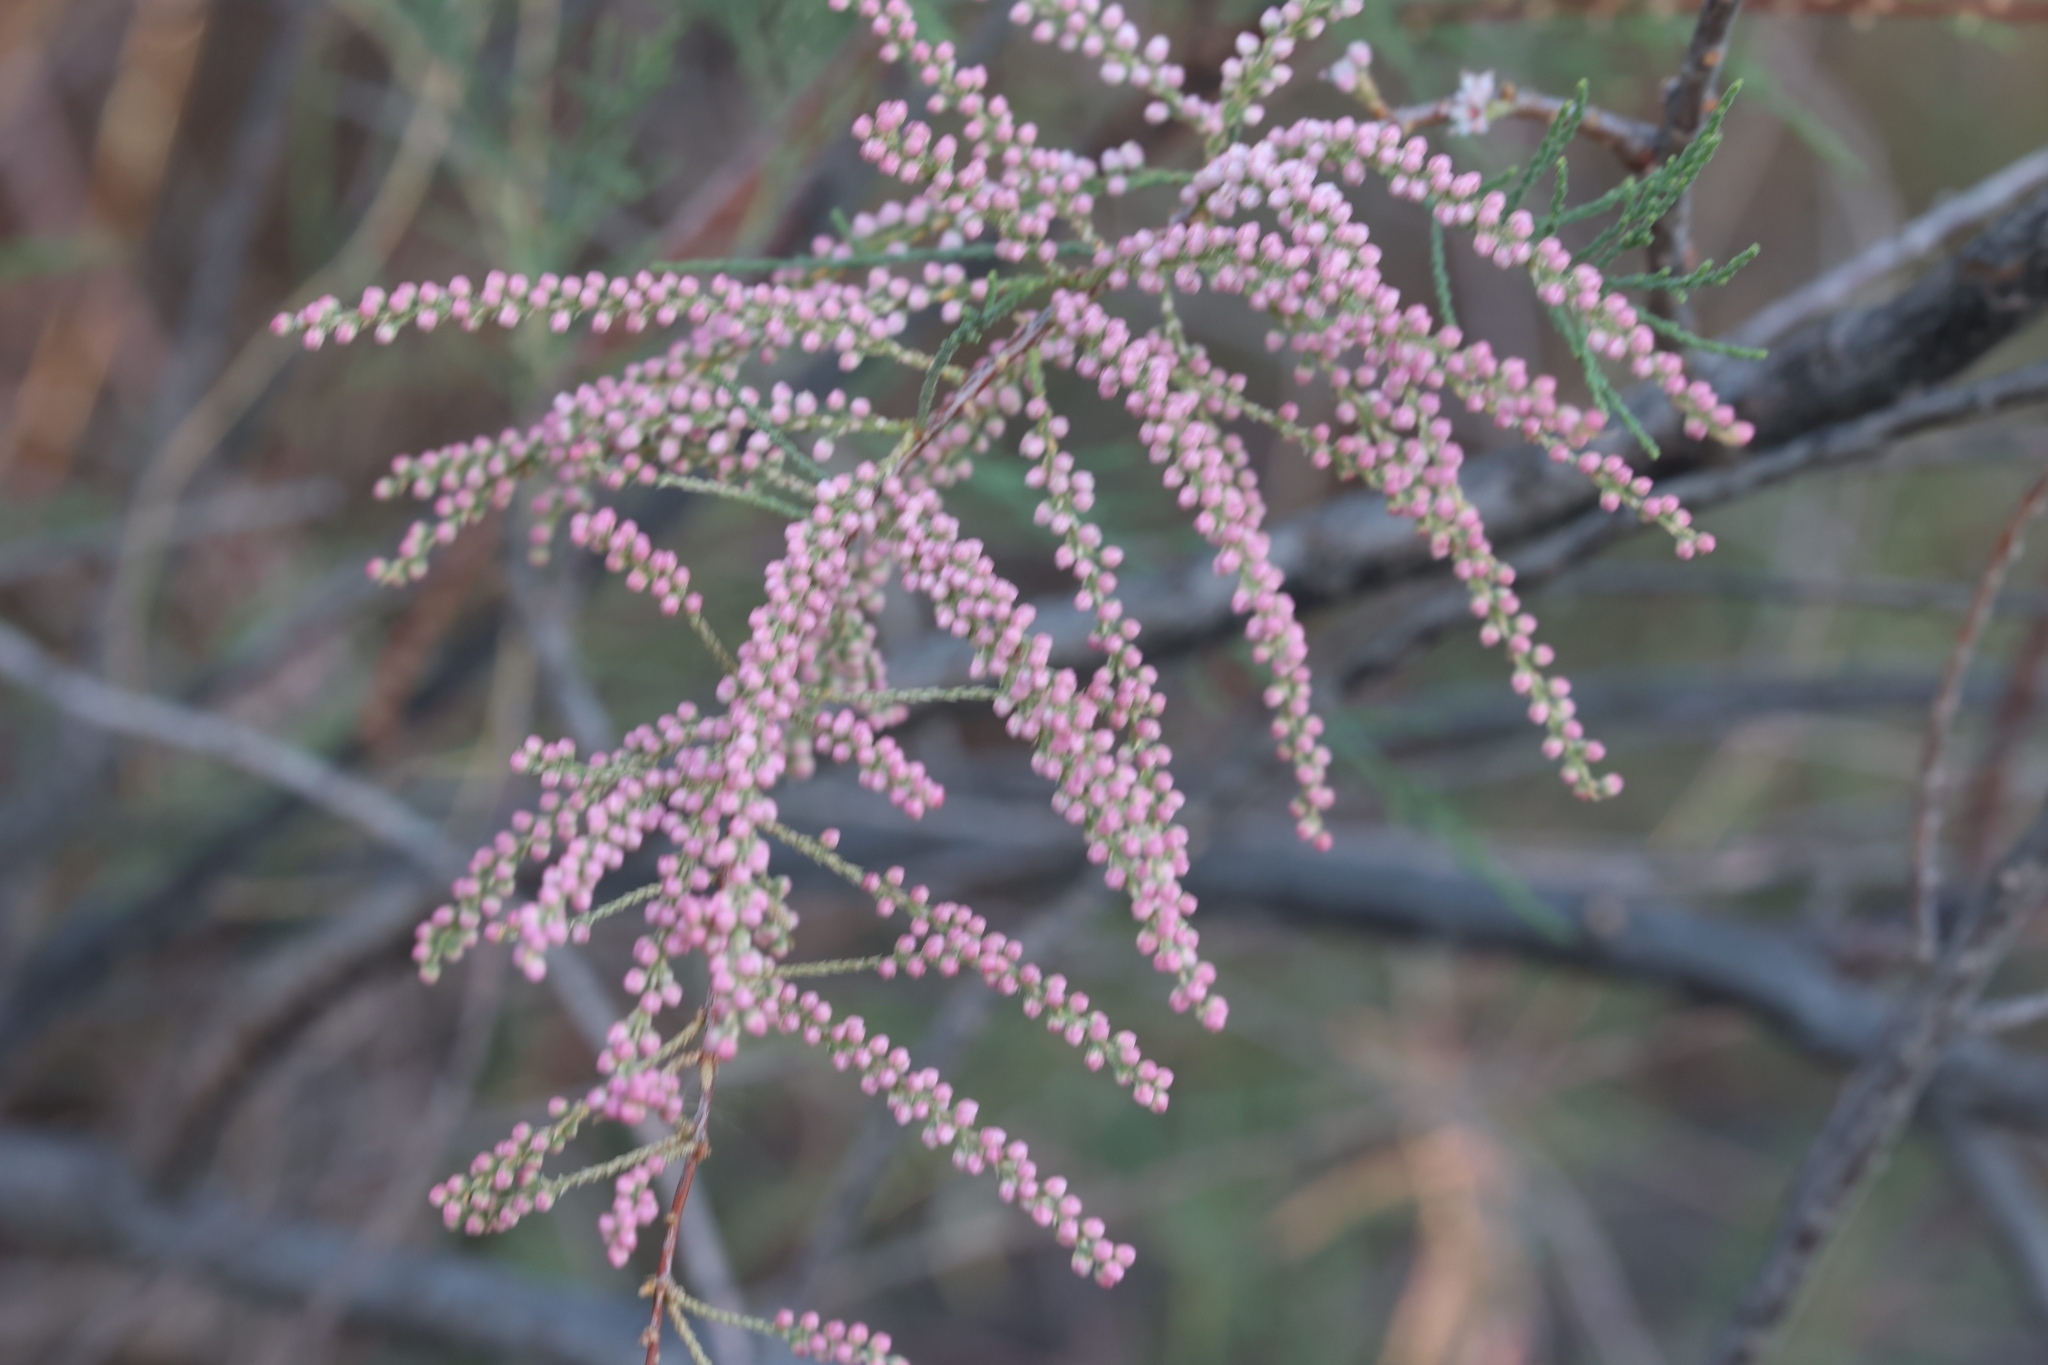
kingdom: Plantae
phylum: Tracheophyta
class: Magnoliopsida
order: Caryophyllales
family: Tamaricaceae
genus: Tamarix
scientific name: Tamarix
